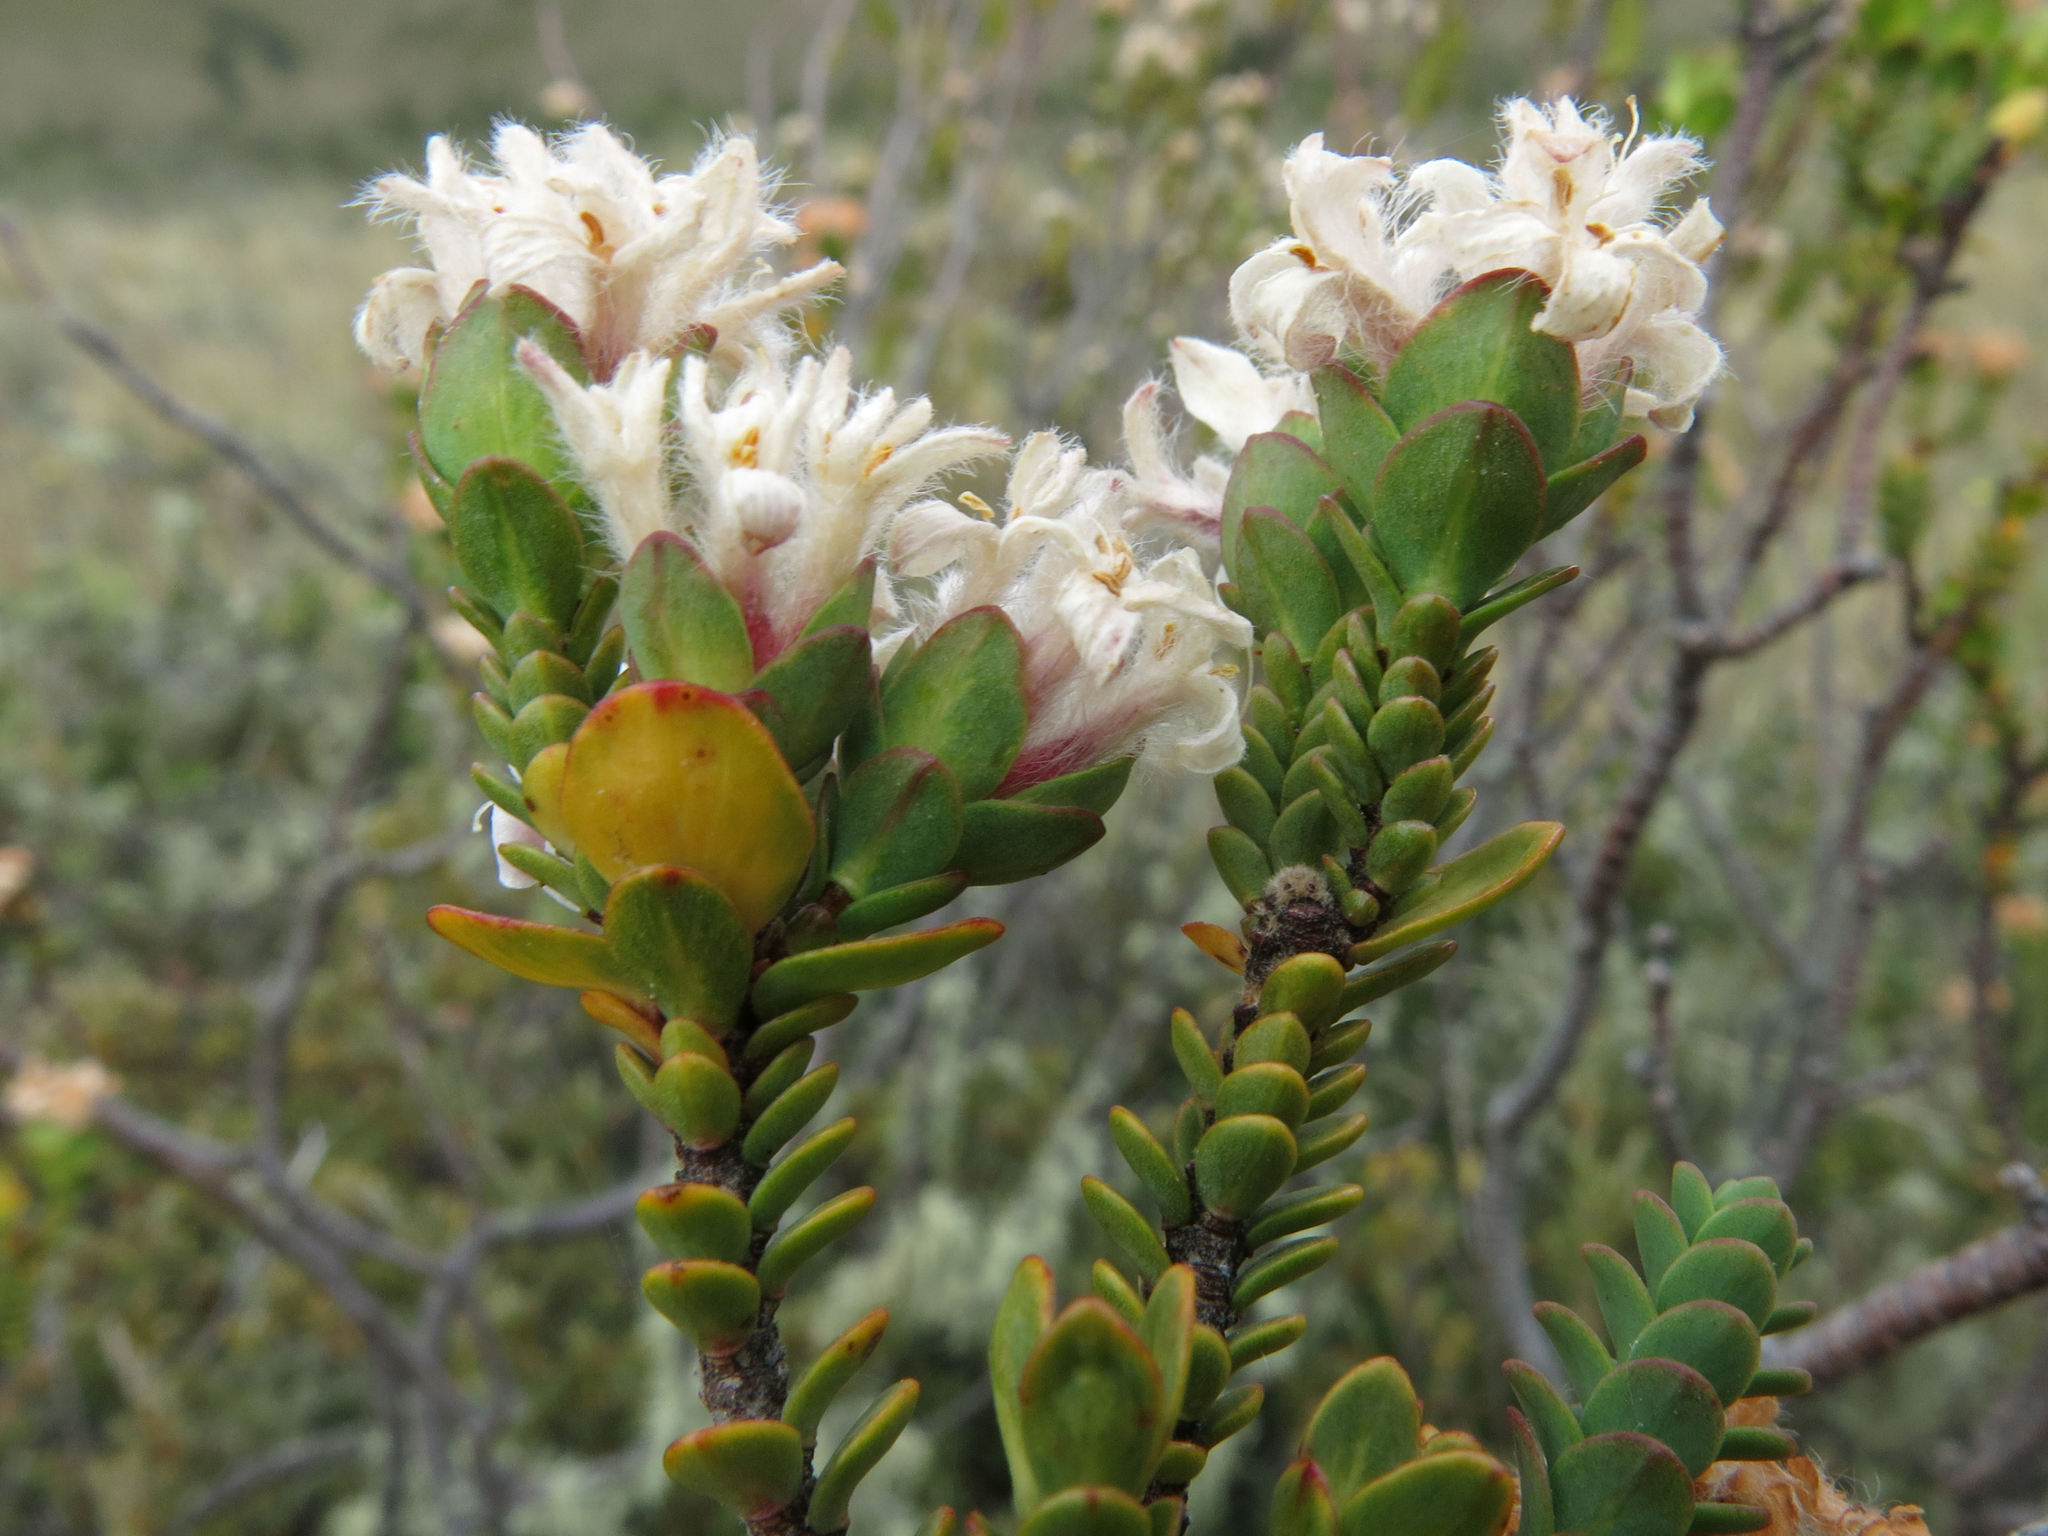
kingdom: Plantae
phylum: Tracheophyta
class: Magnoliopsida
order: Malvales
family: Thymelaeaceae
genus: Pimelea
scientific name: Pimelea traversii
